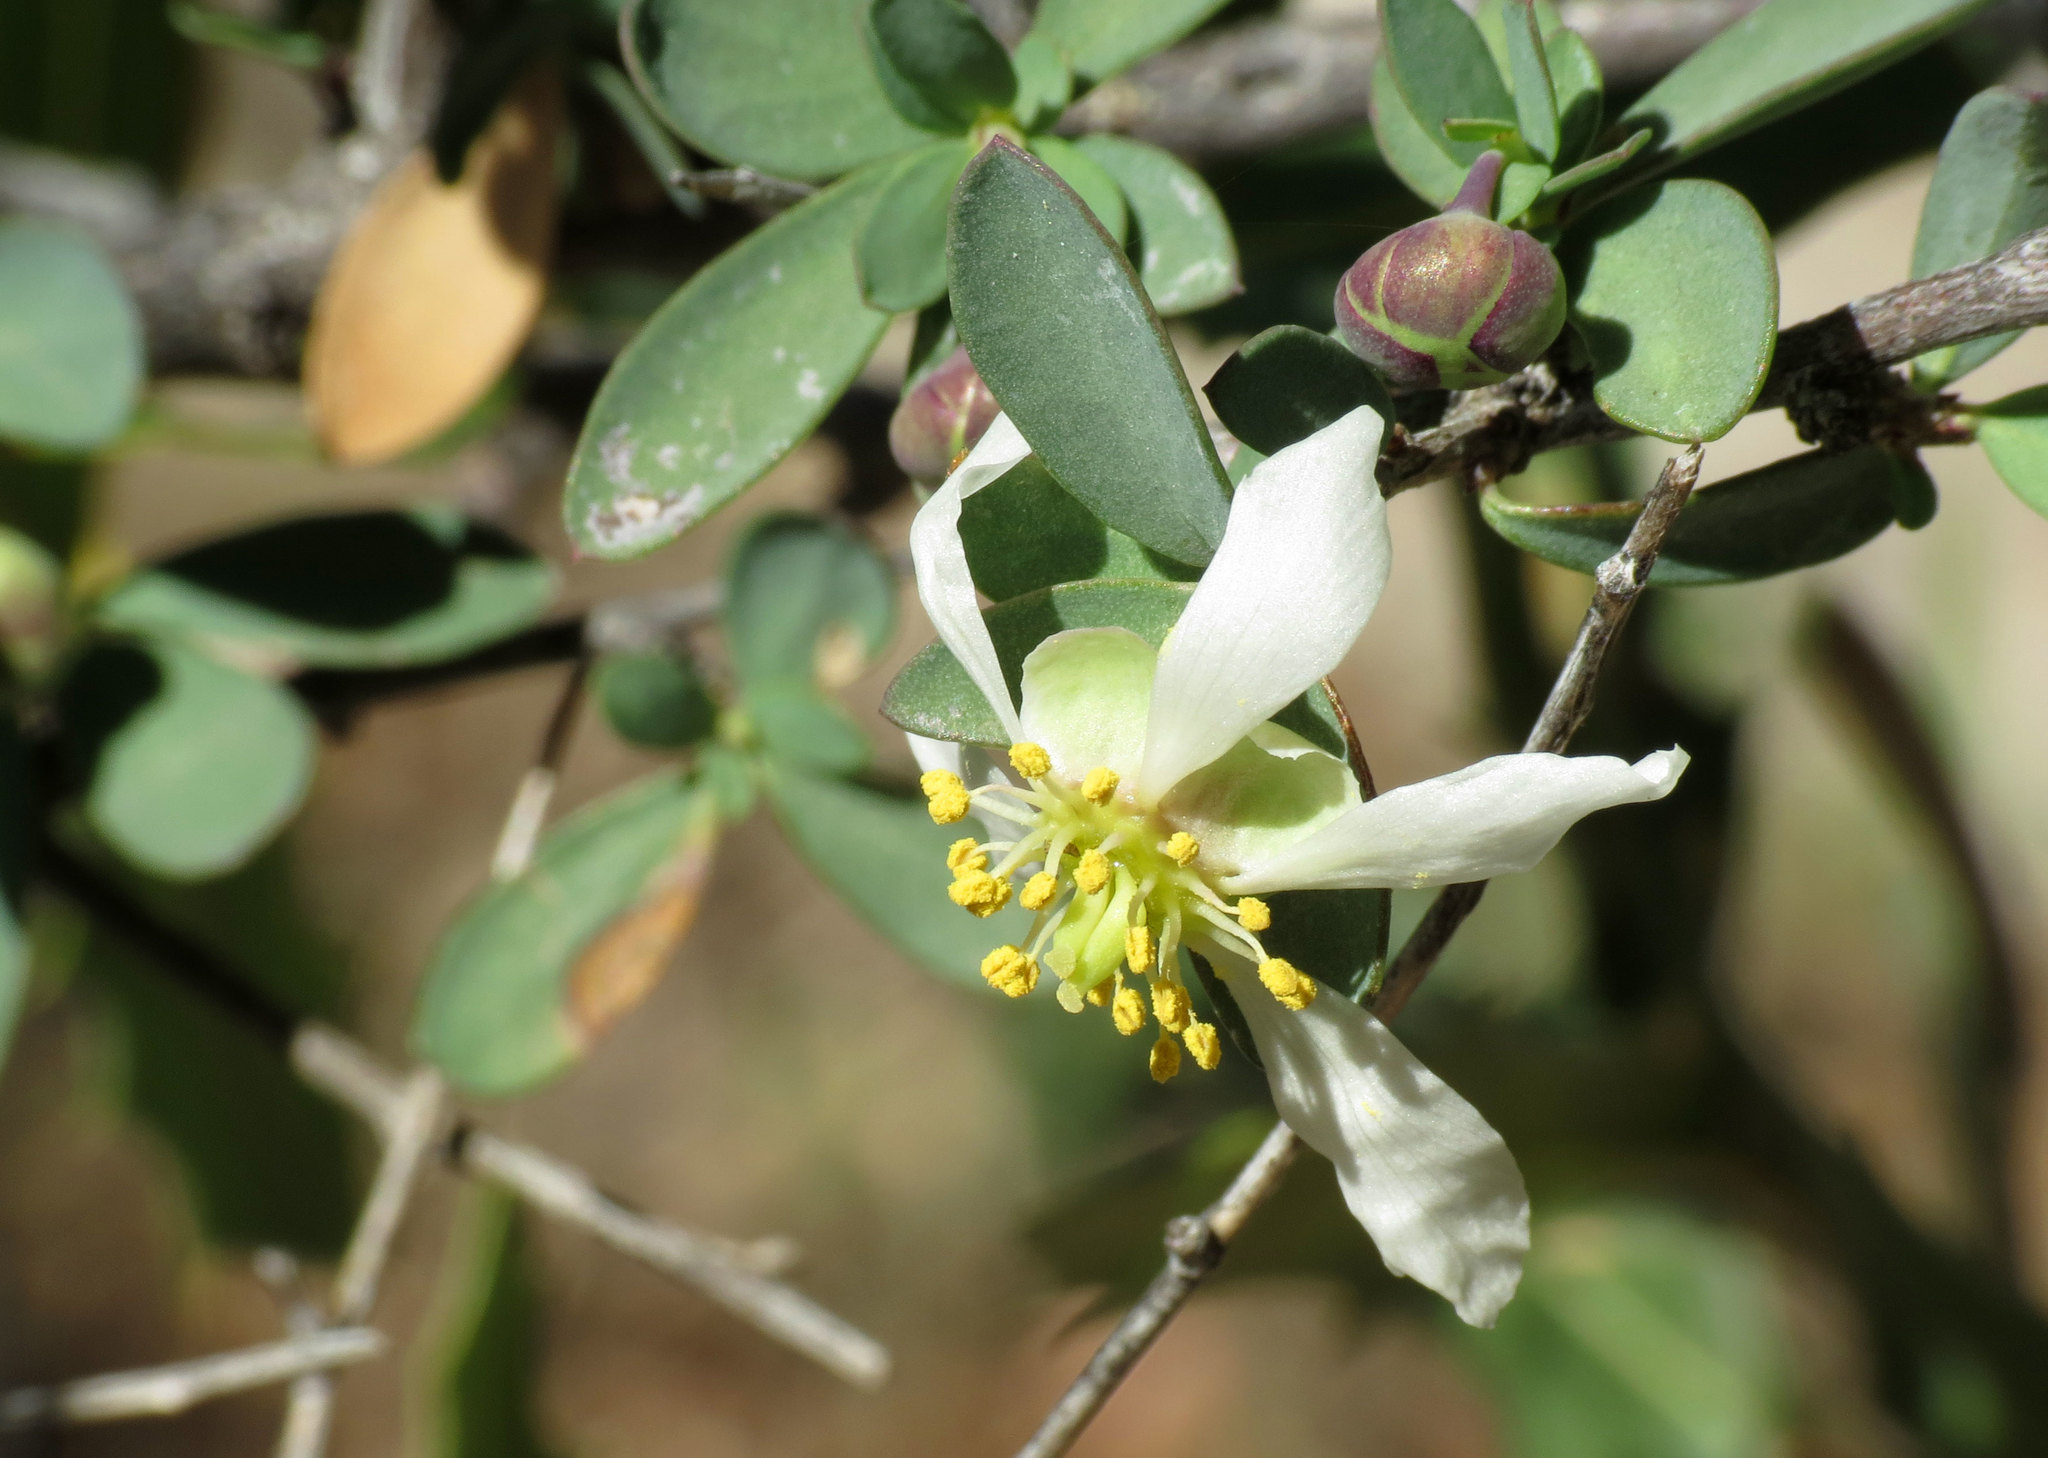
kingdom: Plantae
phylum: Tracheophyta
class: Magnoliopsida
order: Crossosomatales
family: Crossosomataceae
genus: Crossosoma
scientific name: Crossosoma bigelovii
